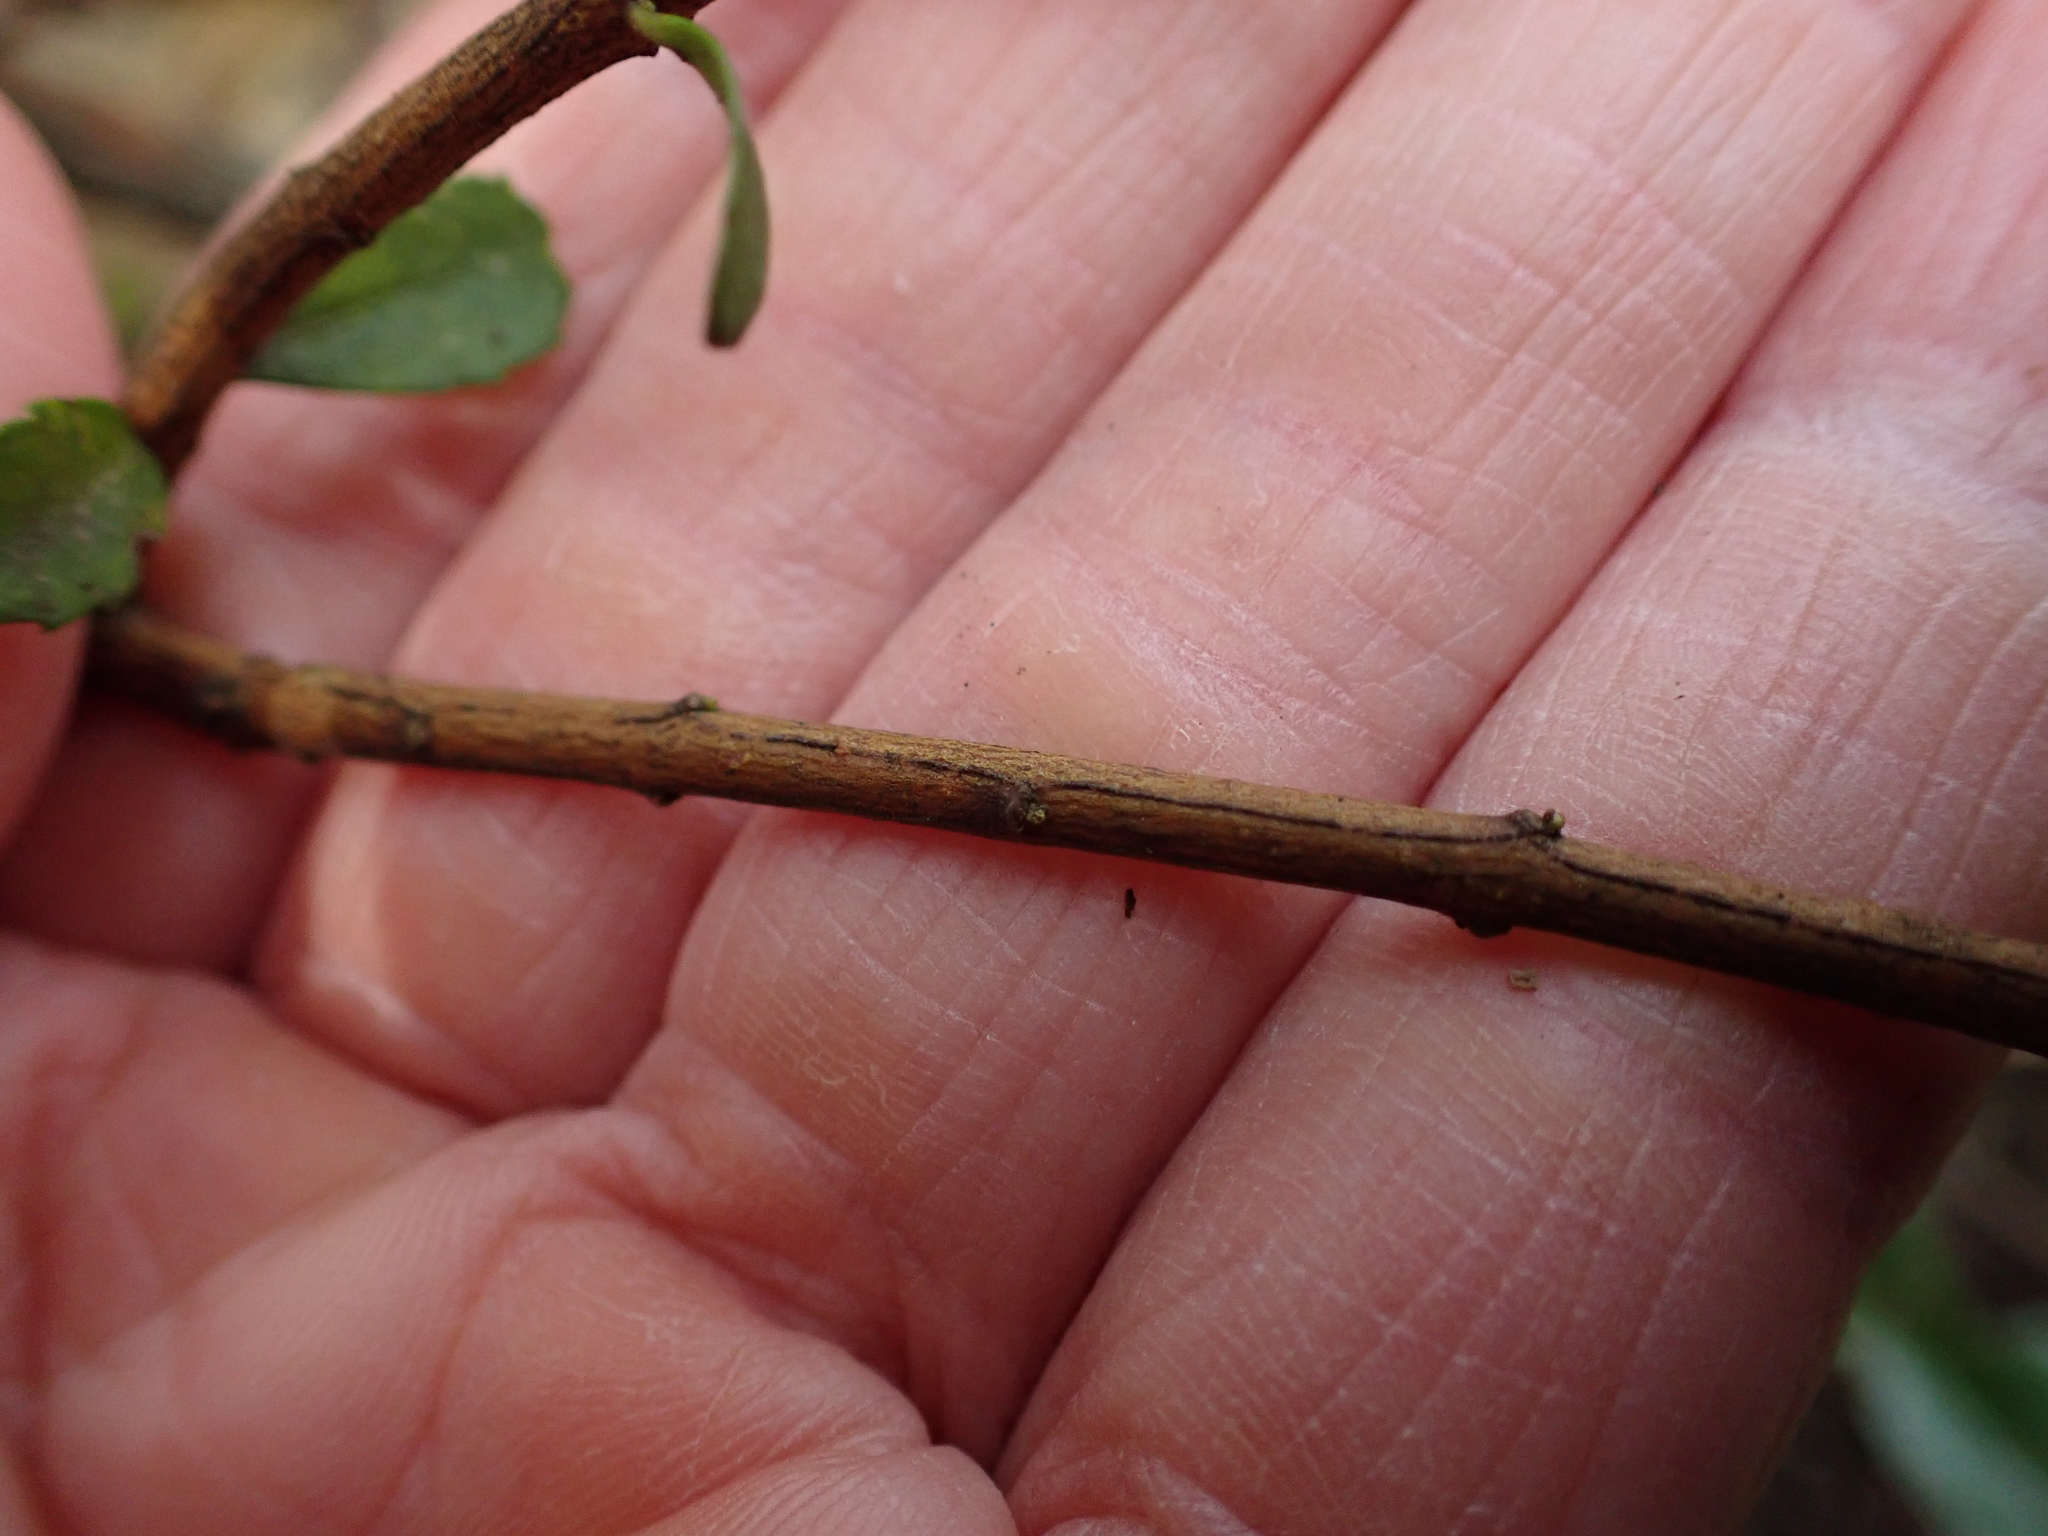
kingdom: Plantae
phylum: Tracheophyta
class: Magnoliopsida
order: Celastrales
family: Celastraceae
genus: Paxistima
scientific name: Paxistima myrsinites
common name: Mountain-lover
